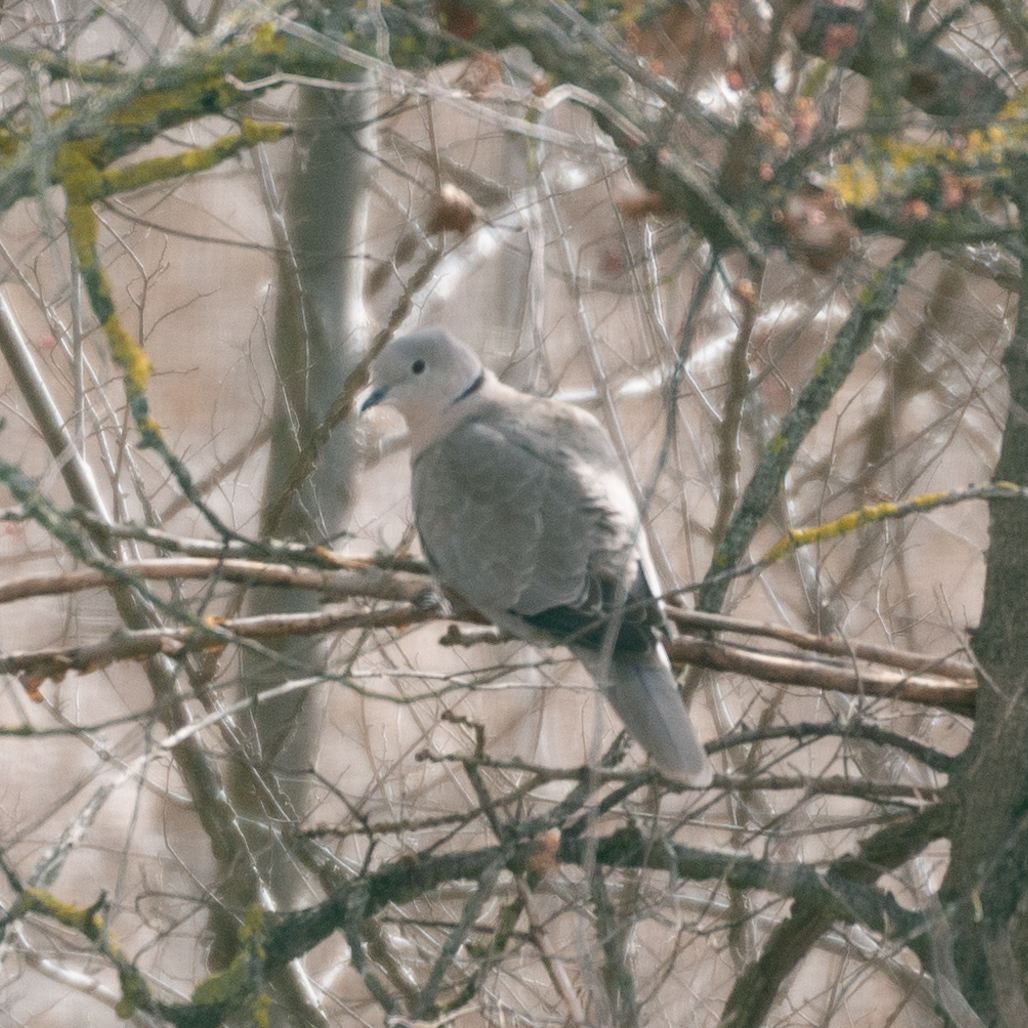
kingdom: Animalia
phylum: Chordata
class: Aves
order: Columbiformes
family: Columbidae
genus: Streptopelia
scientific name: Streptopelia decaocto
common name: Eurasian collared dove
